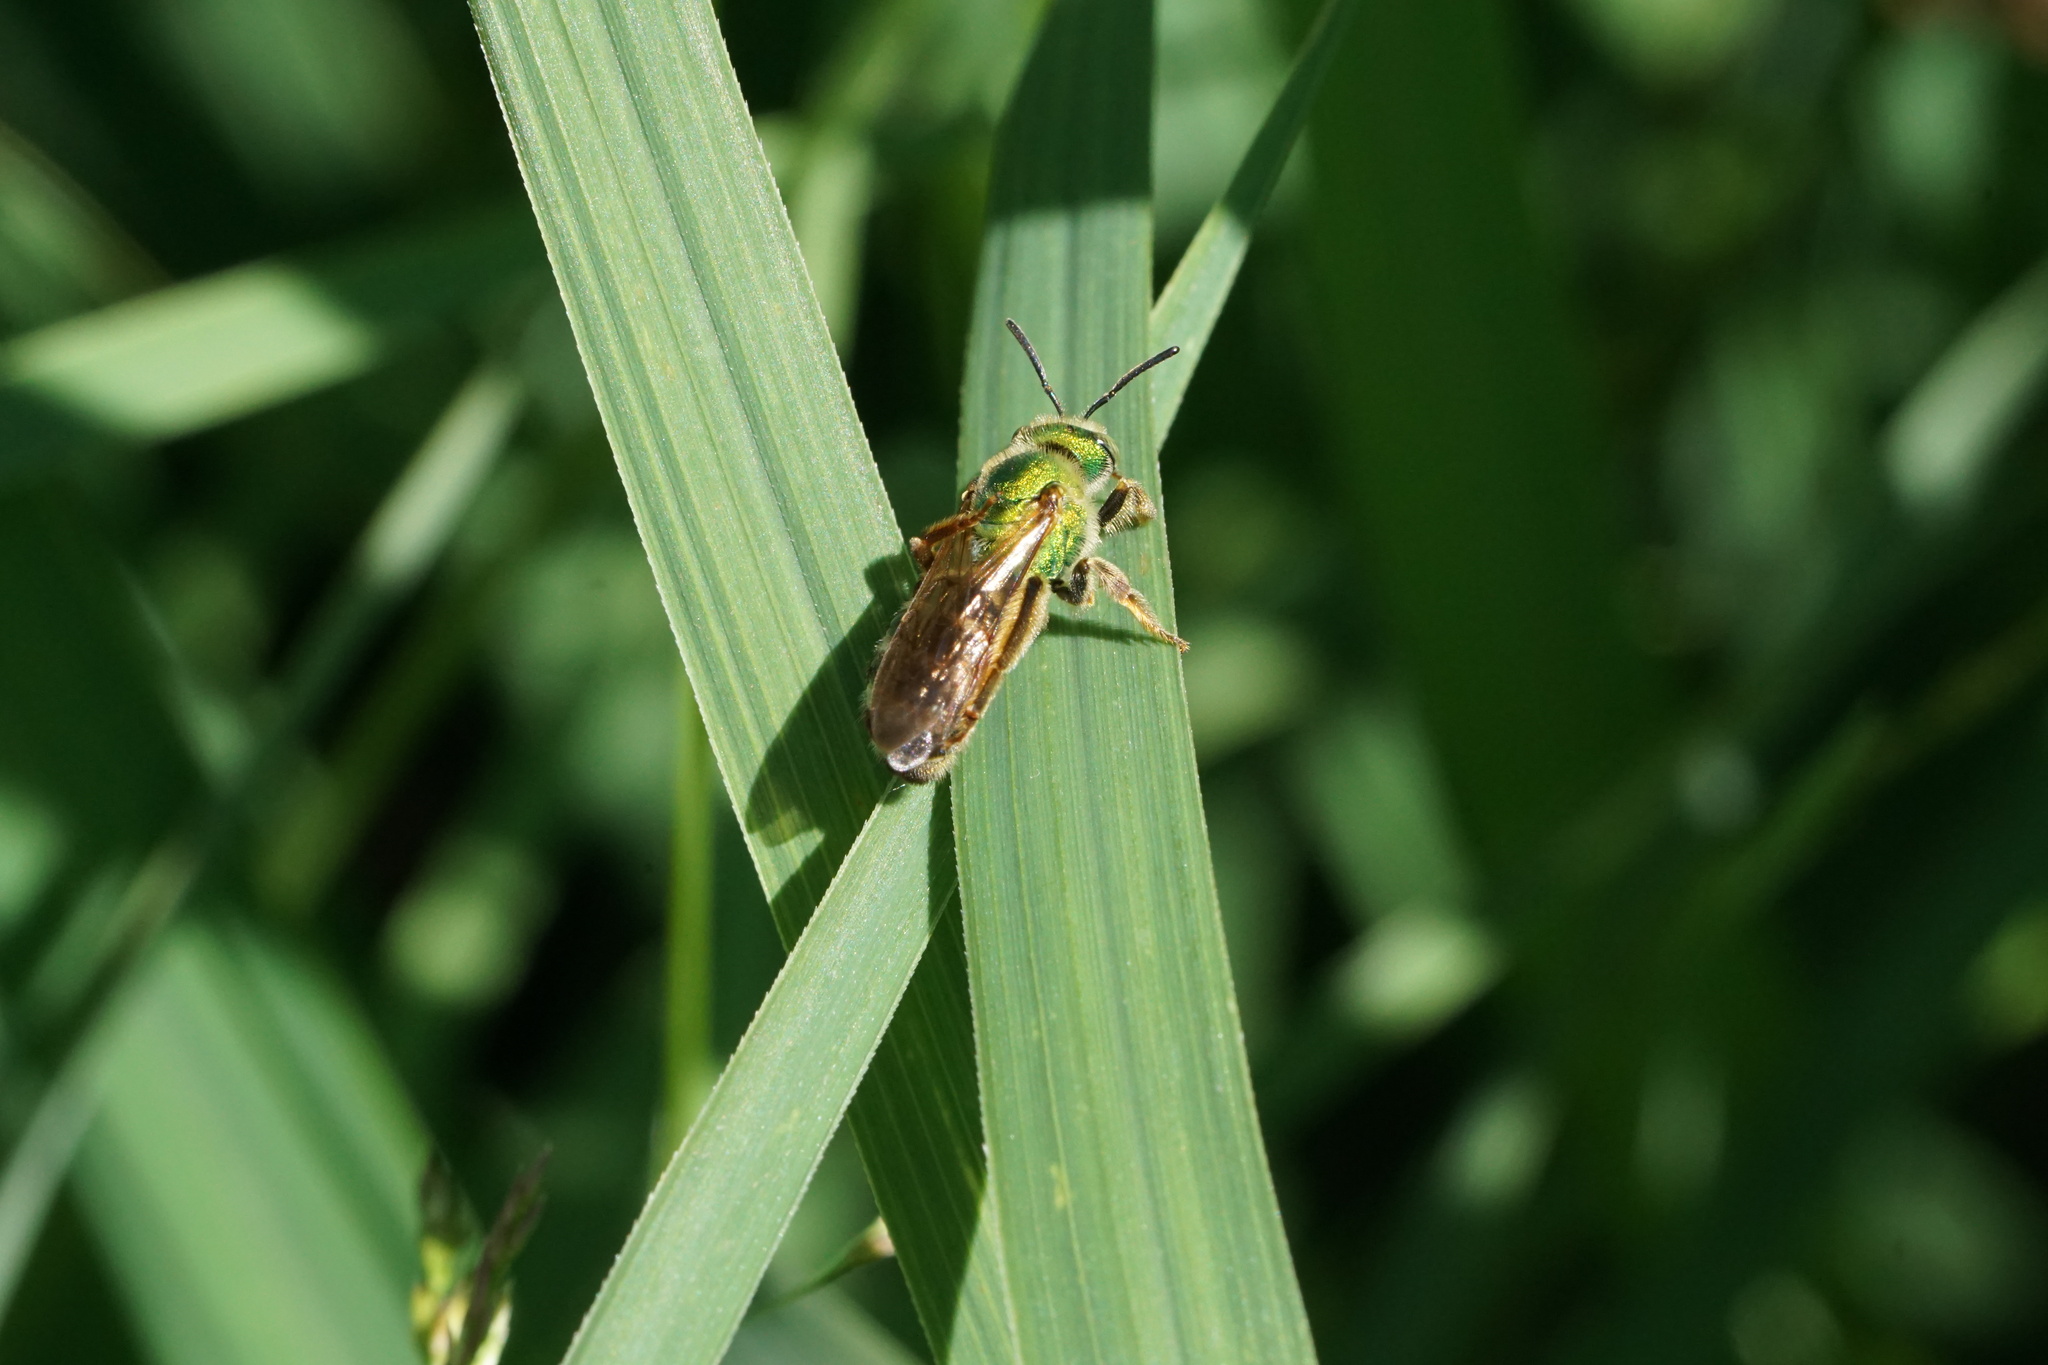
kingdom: Animalia
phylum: Arthropoda
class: Insecta
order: Hymenoptera
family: Halictidae
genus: Agapostemon
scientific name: Agapostemon virescens
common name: Bicolored striped sweat bee
